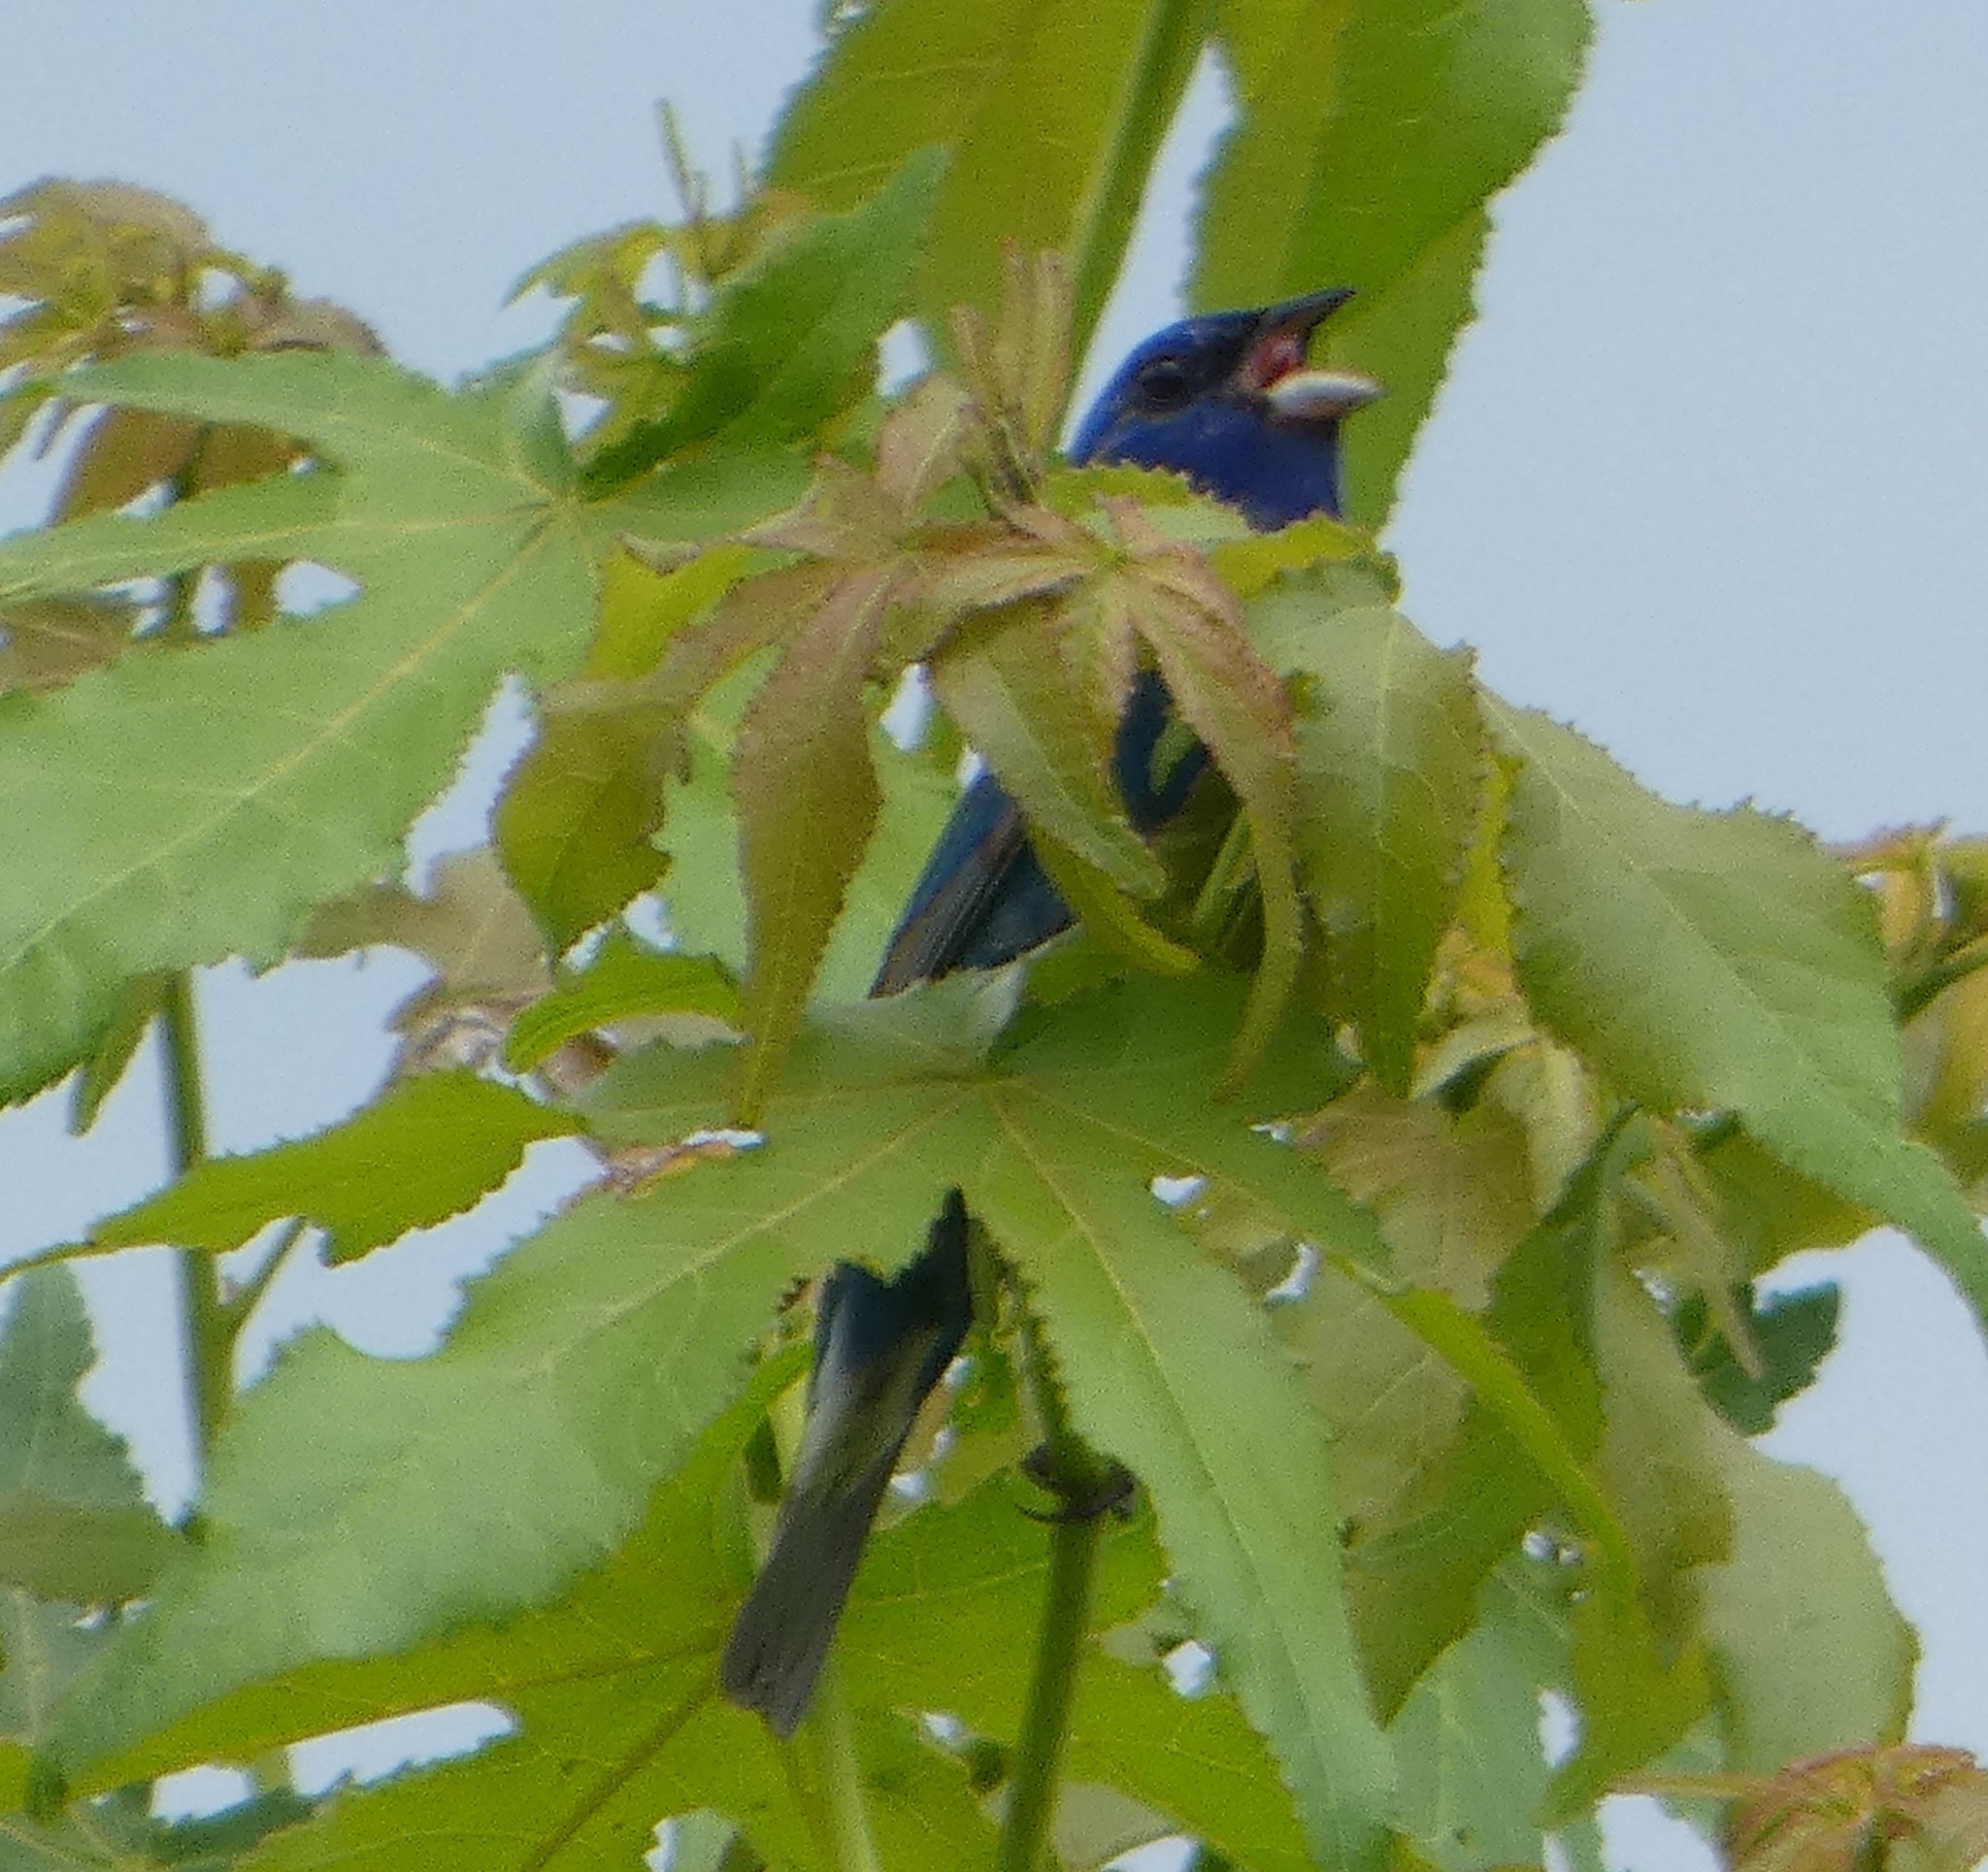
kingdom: Animalia
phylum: Chordata
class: Aves
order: Passeriformes
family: Cardinalidae
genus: Passerina
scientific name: Passerina cyanea
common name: Indigo bunting
